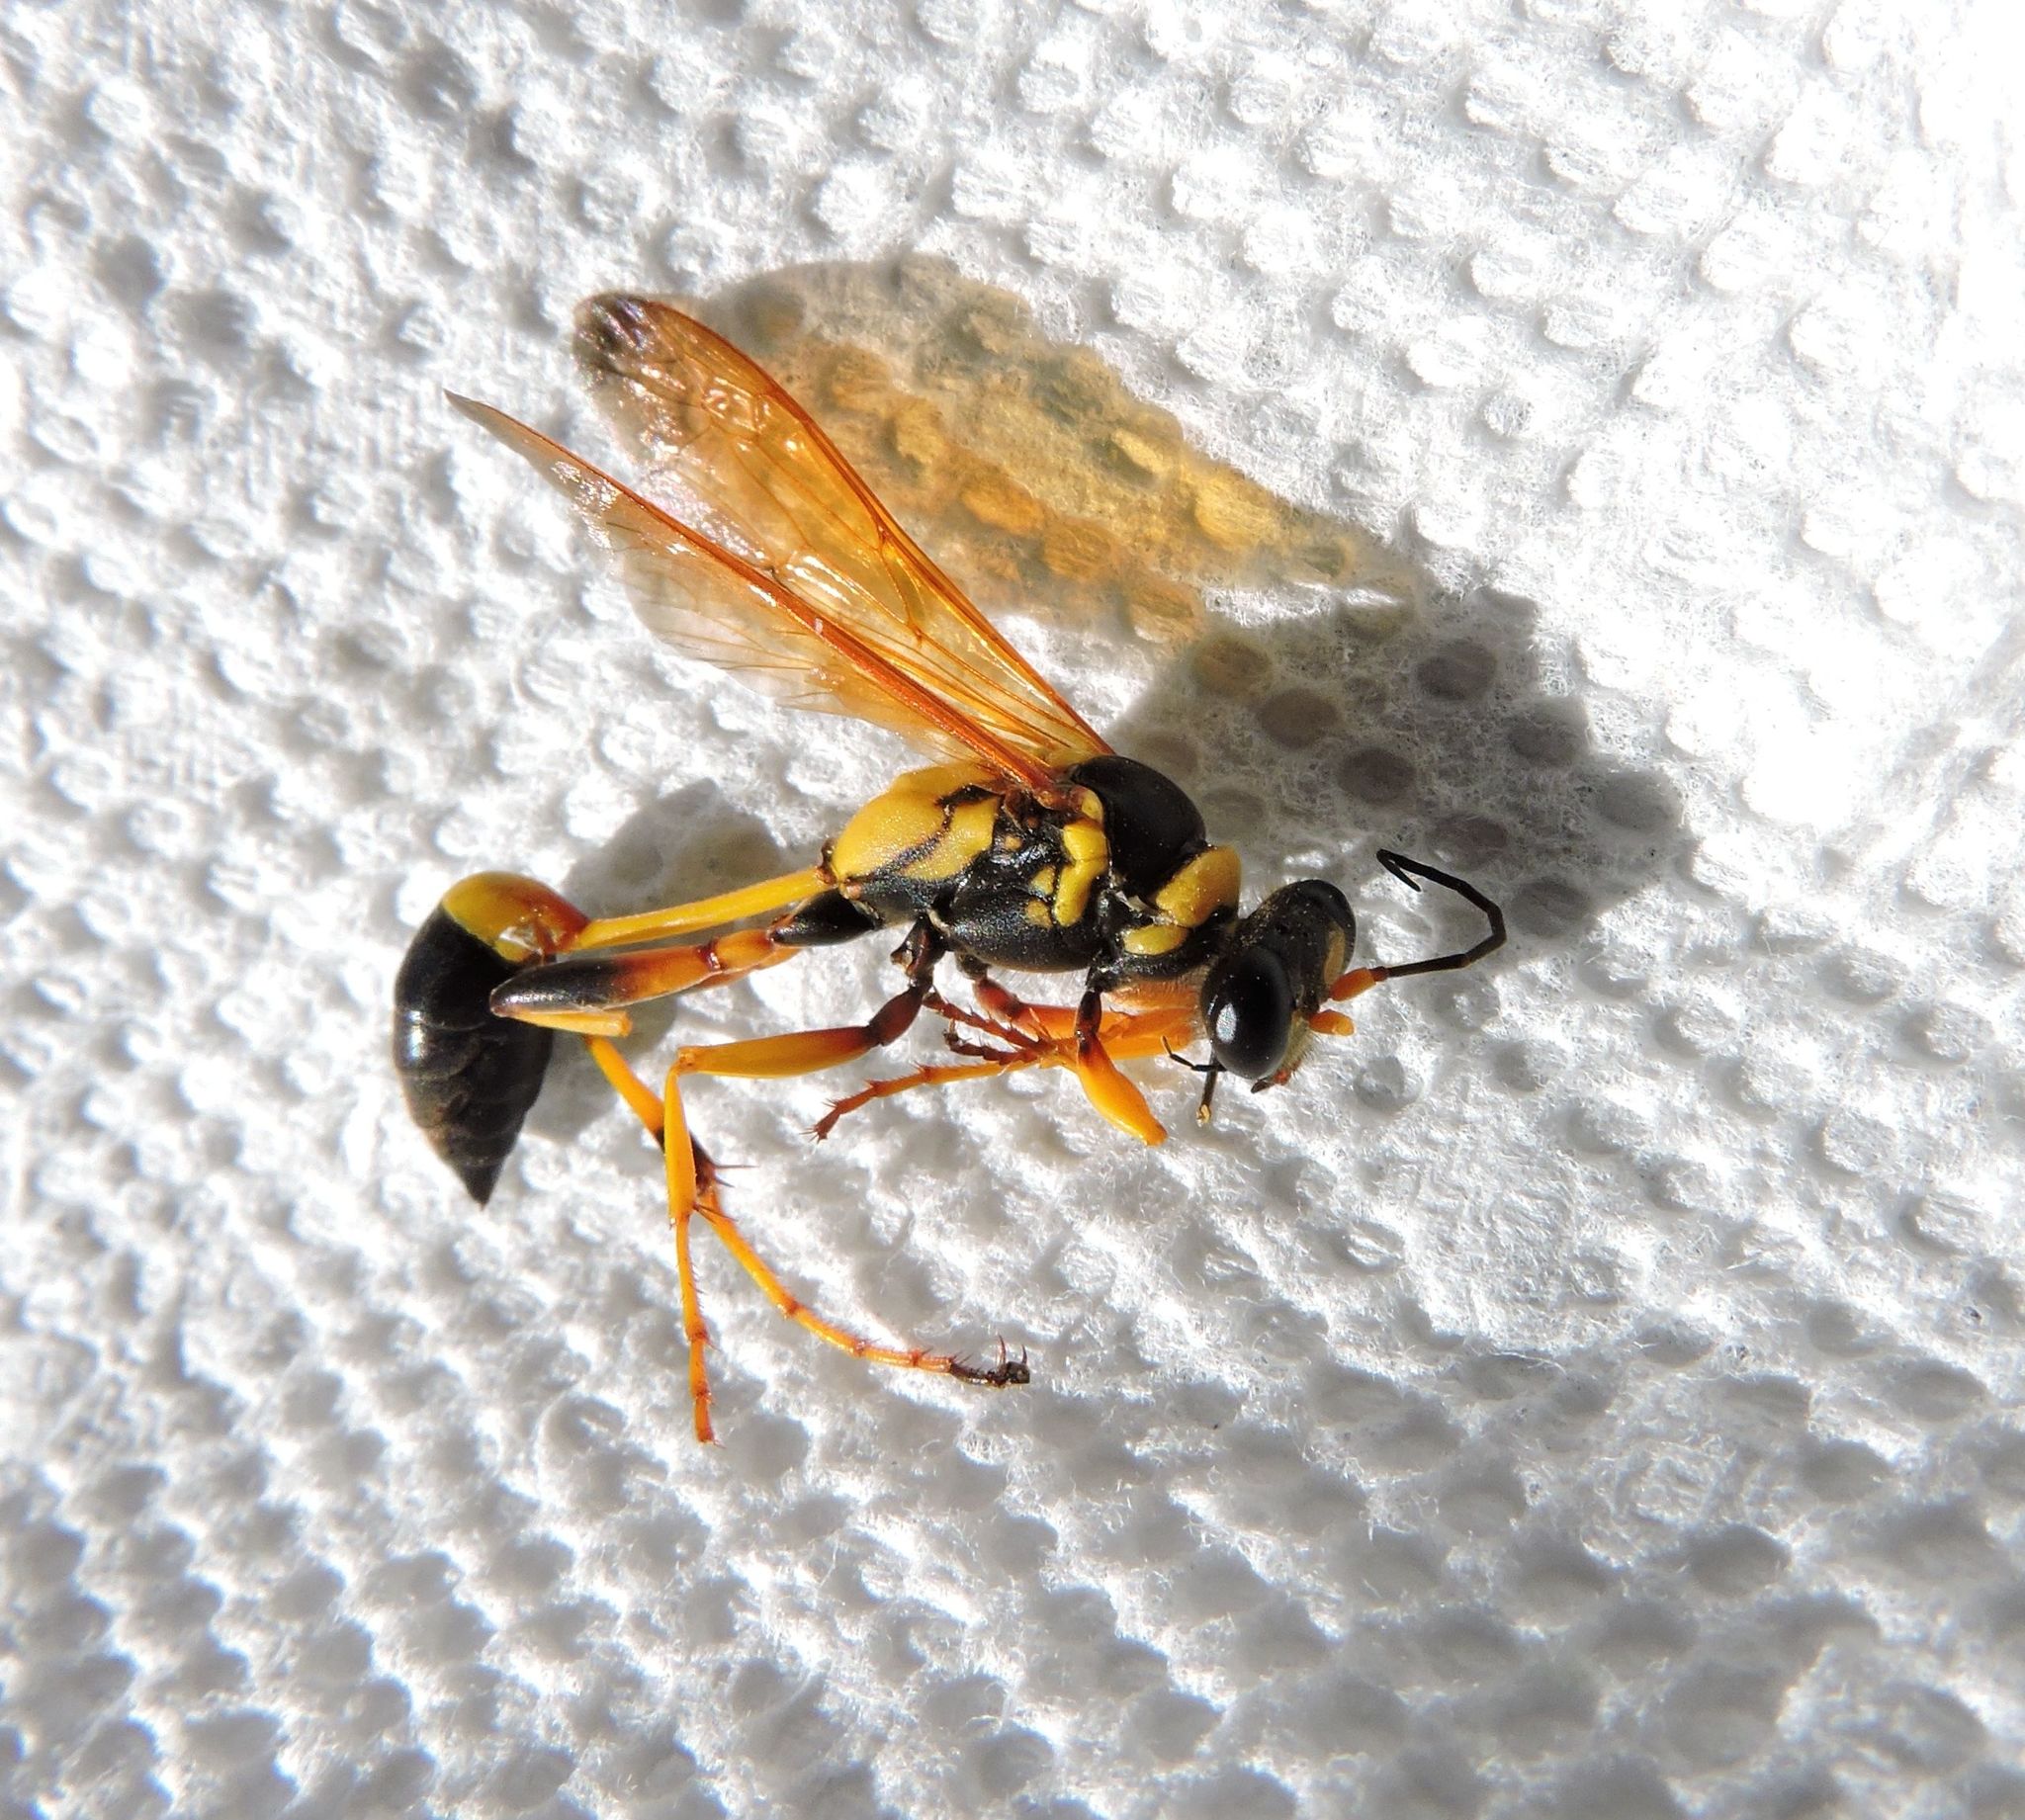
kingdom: Animalia
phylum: Arthropoda
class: Insecta
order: Hymenoptera
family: Sphecidae
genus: Sceliphron
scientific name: Sceliphron caementarium
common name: Mud dauber
